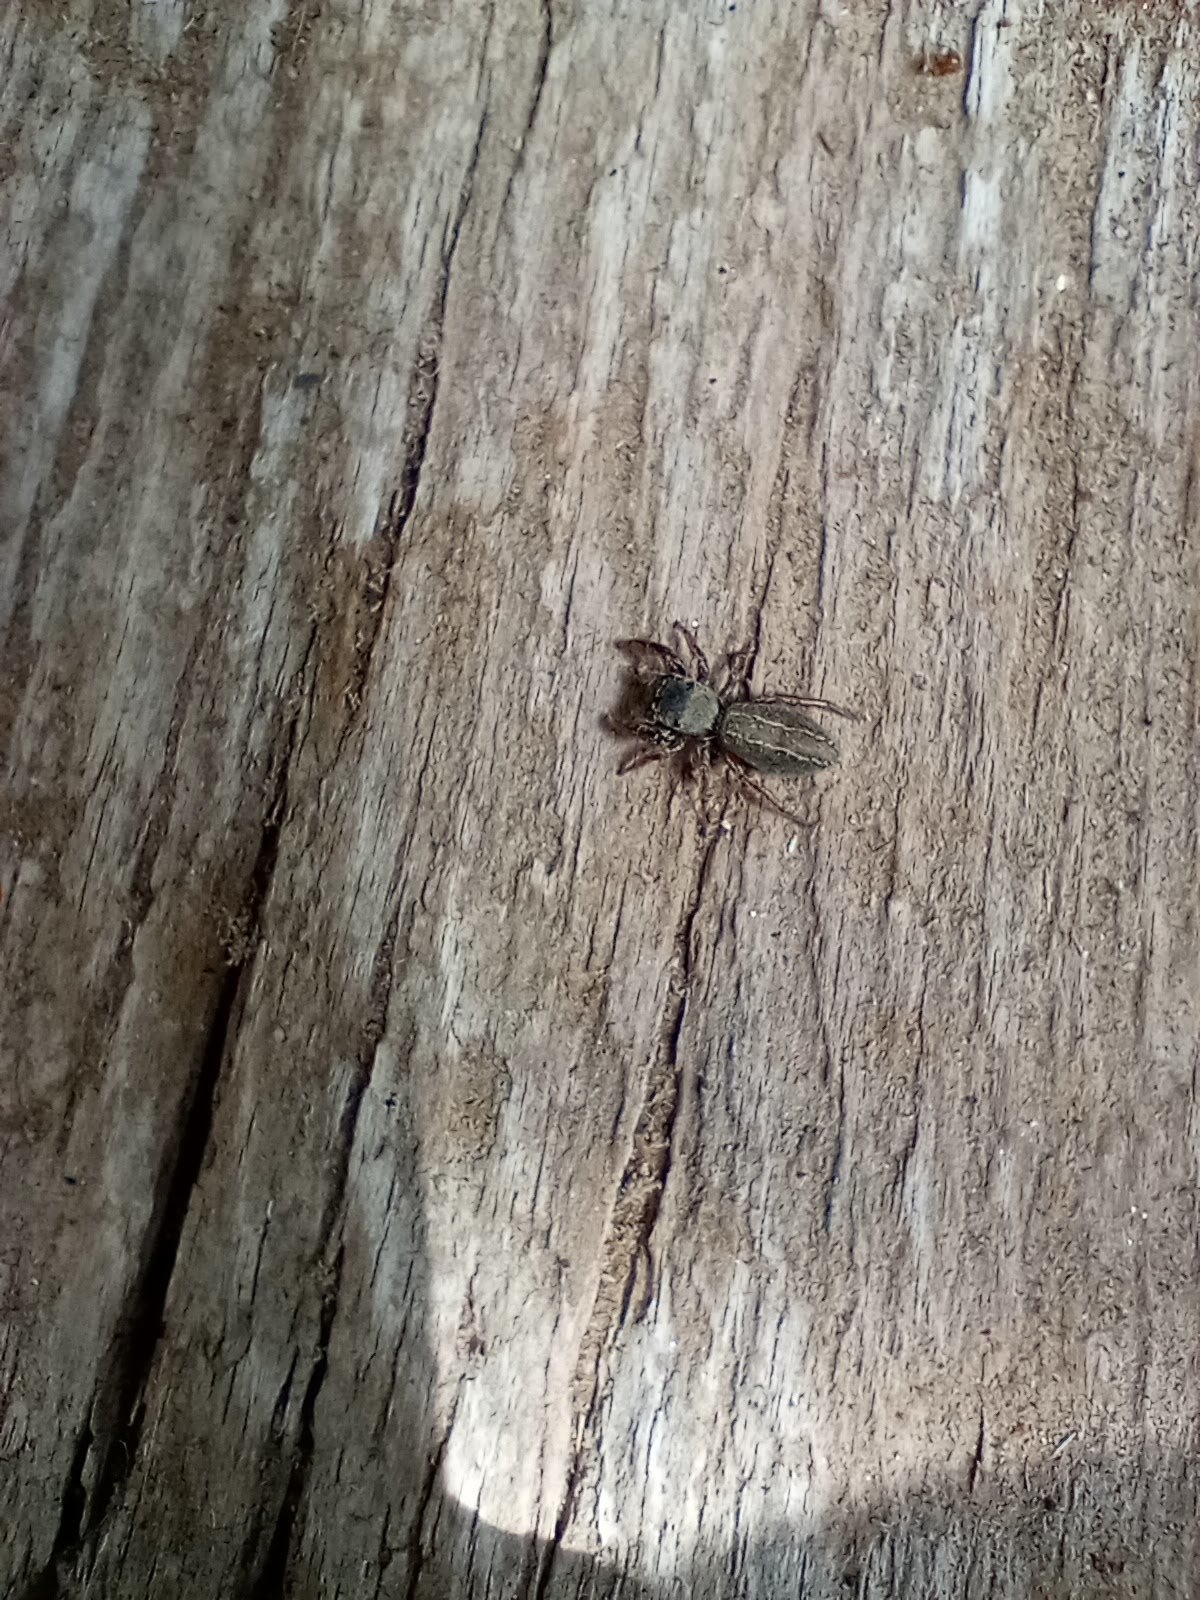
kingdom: Animalia
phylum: Arthropoda
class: Arachnida
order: Araneae
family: Salticidae
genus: Metacyrba
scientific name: Metacyrba taeniola
